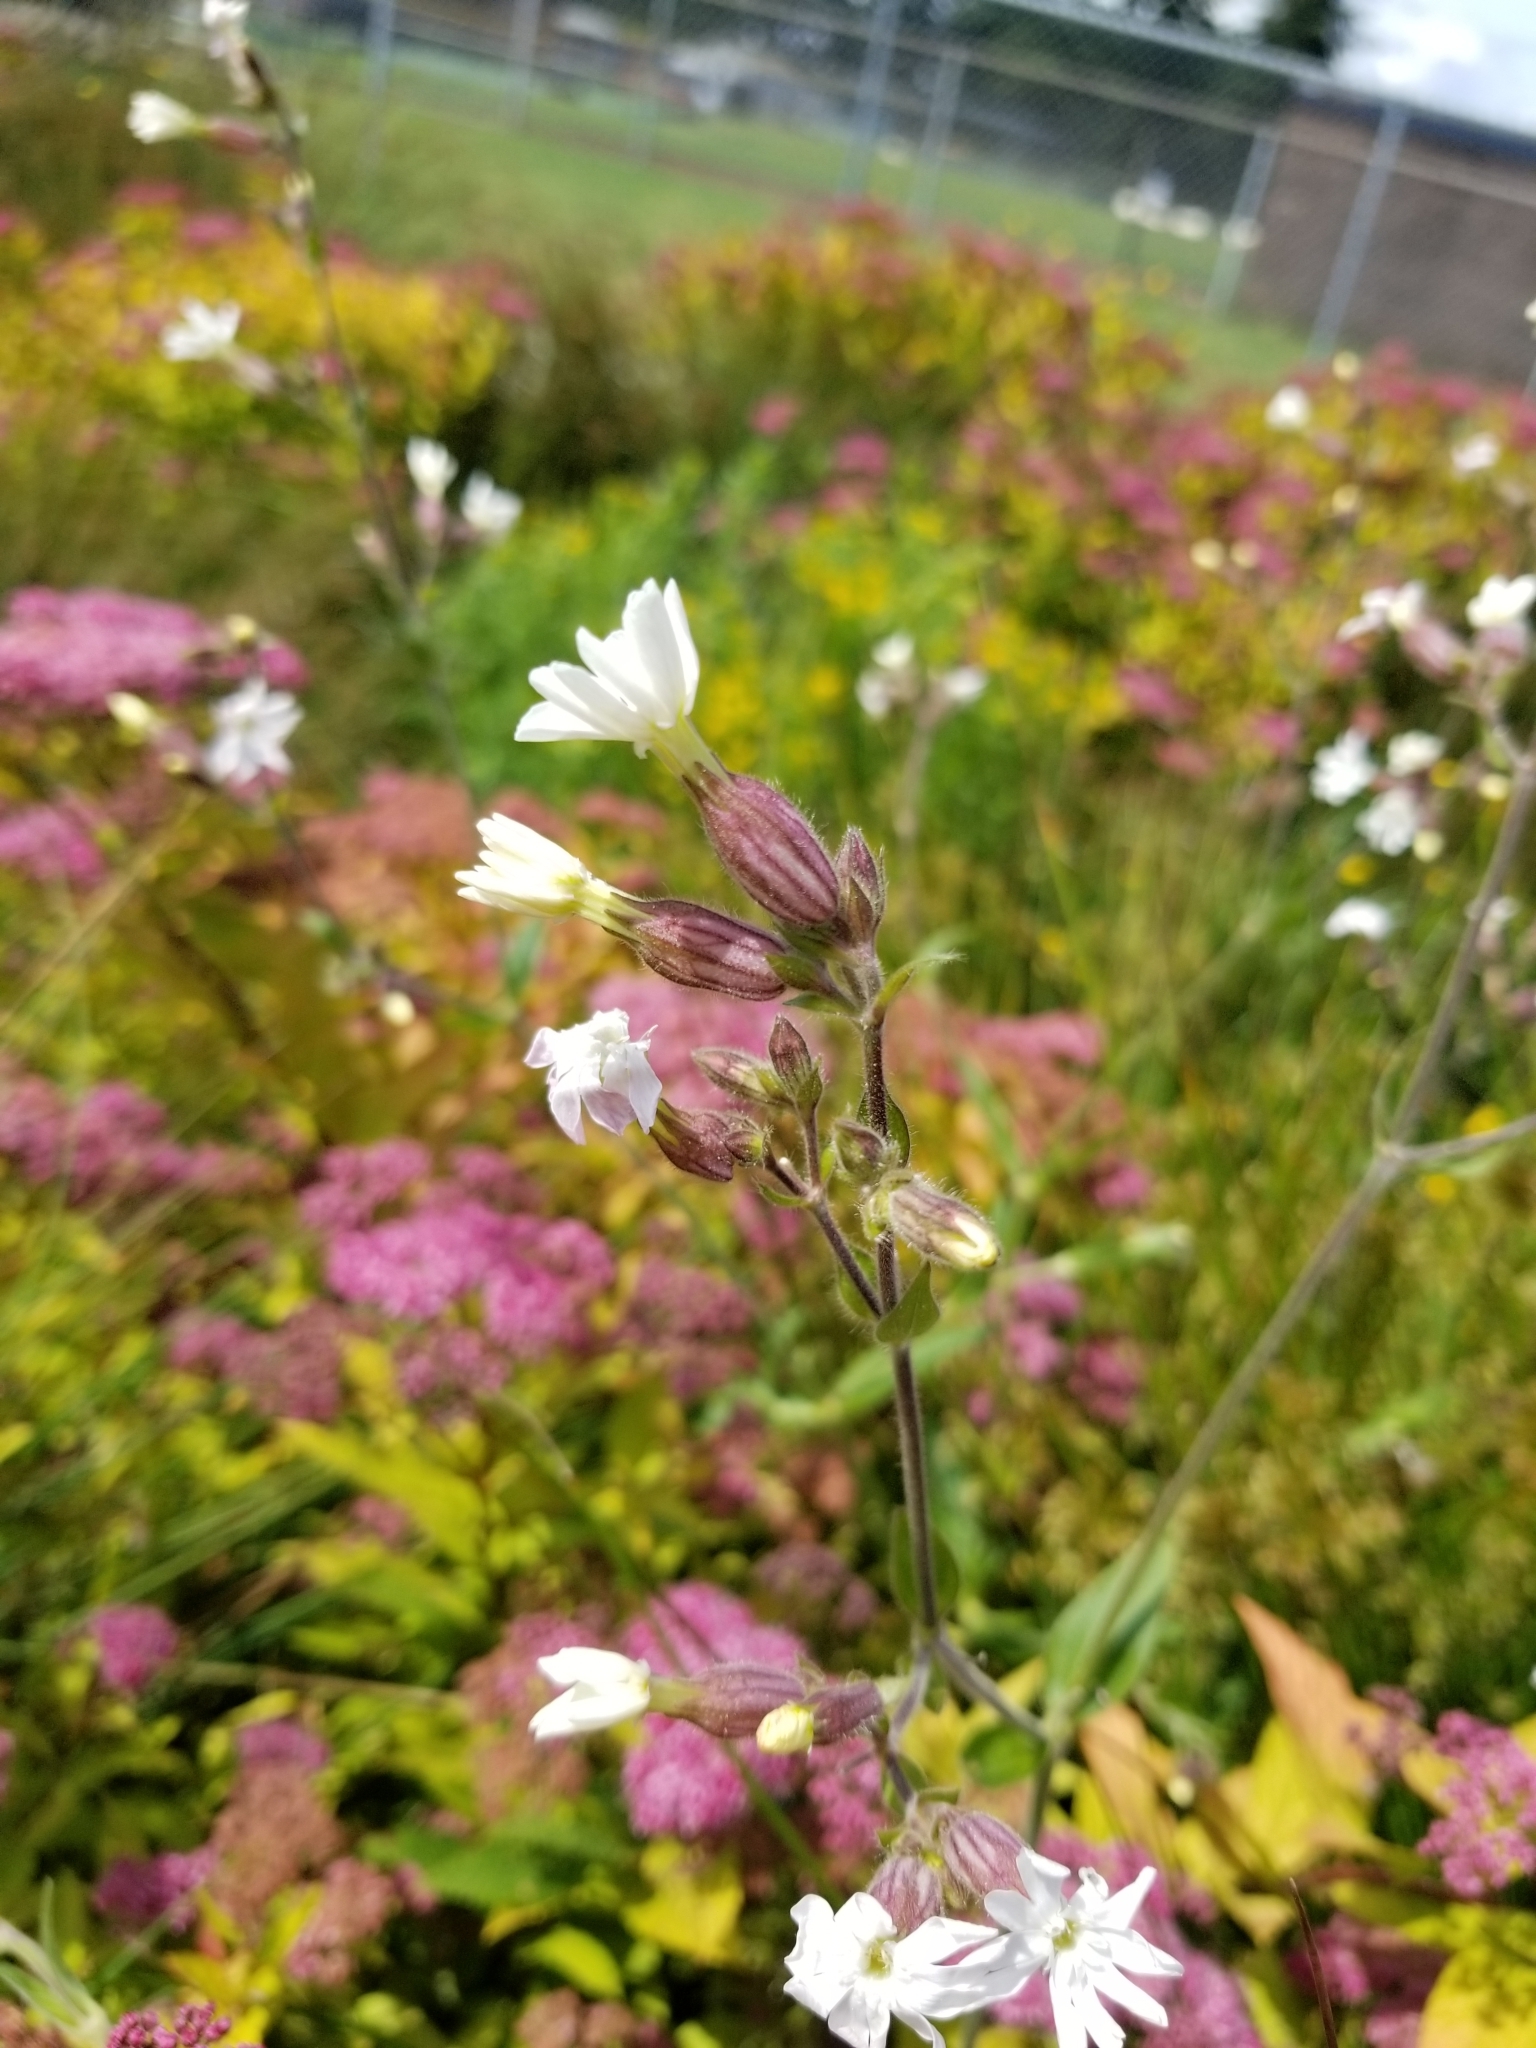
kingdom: Plantae
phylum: Tracheophyta
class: Magnoliopsida
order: Caryophyllales
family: Caryophyllaceae
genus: Silene
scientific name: Silene latifolia
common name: White campion
